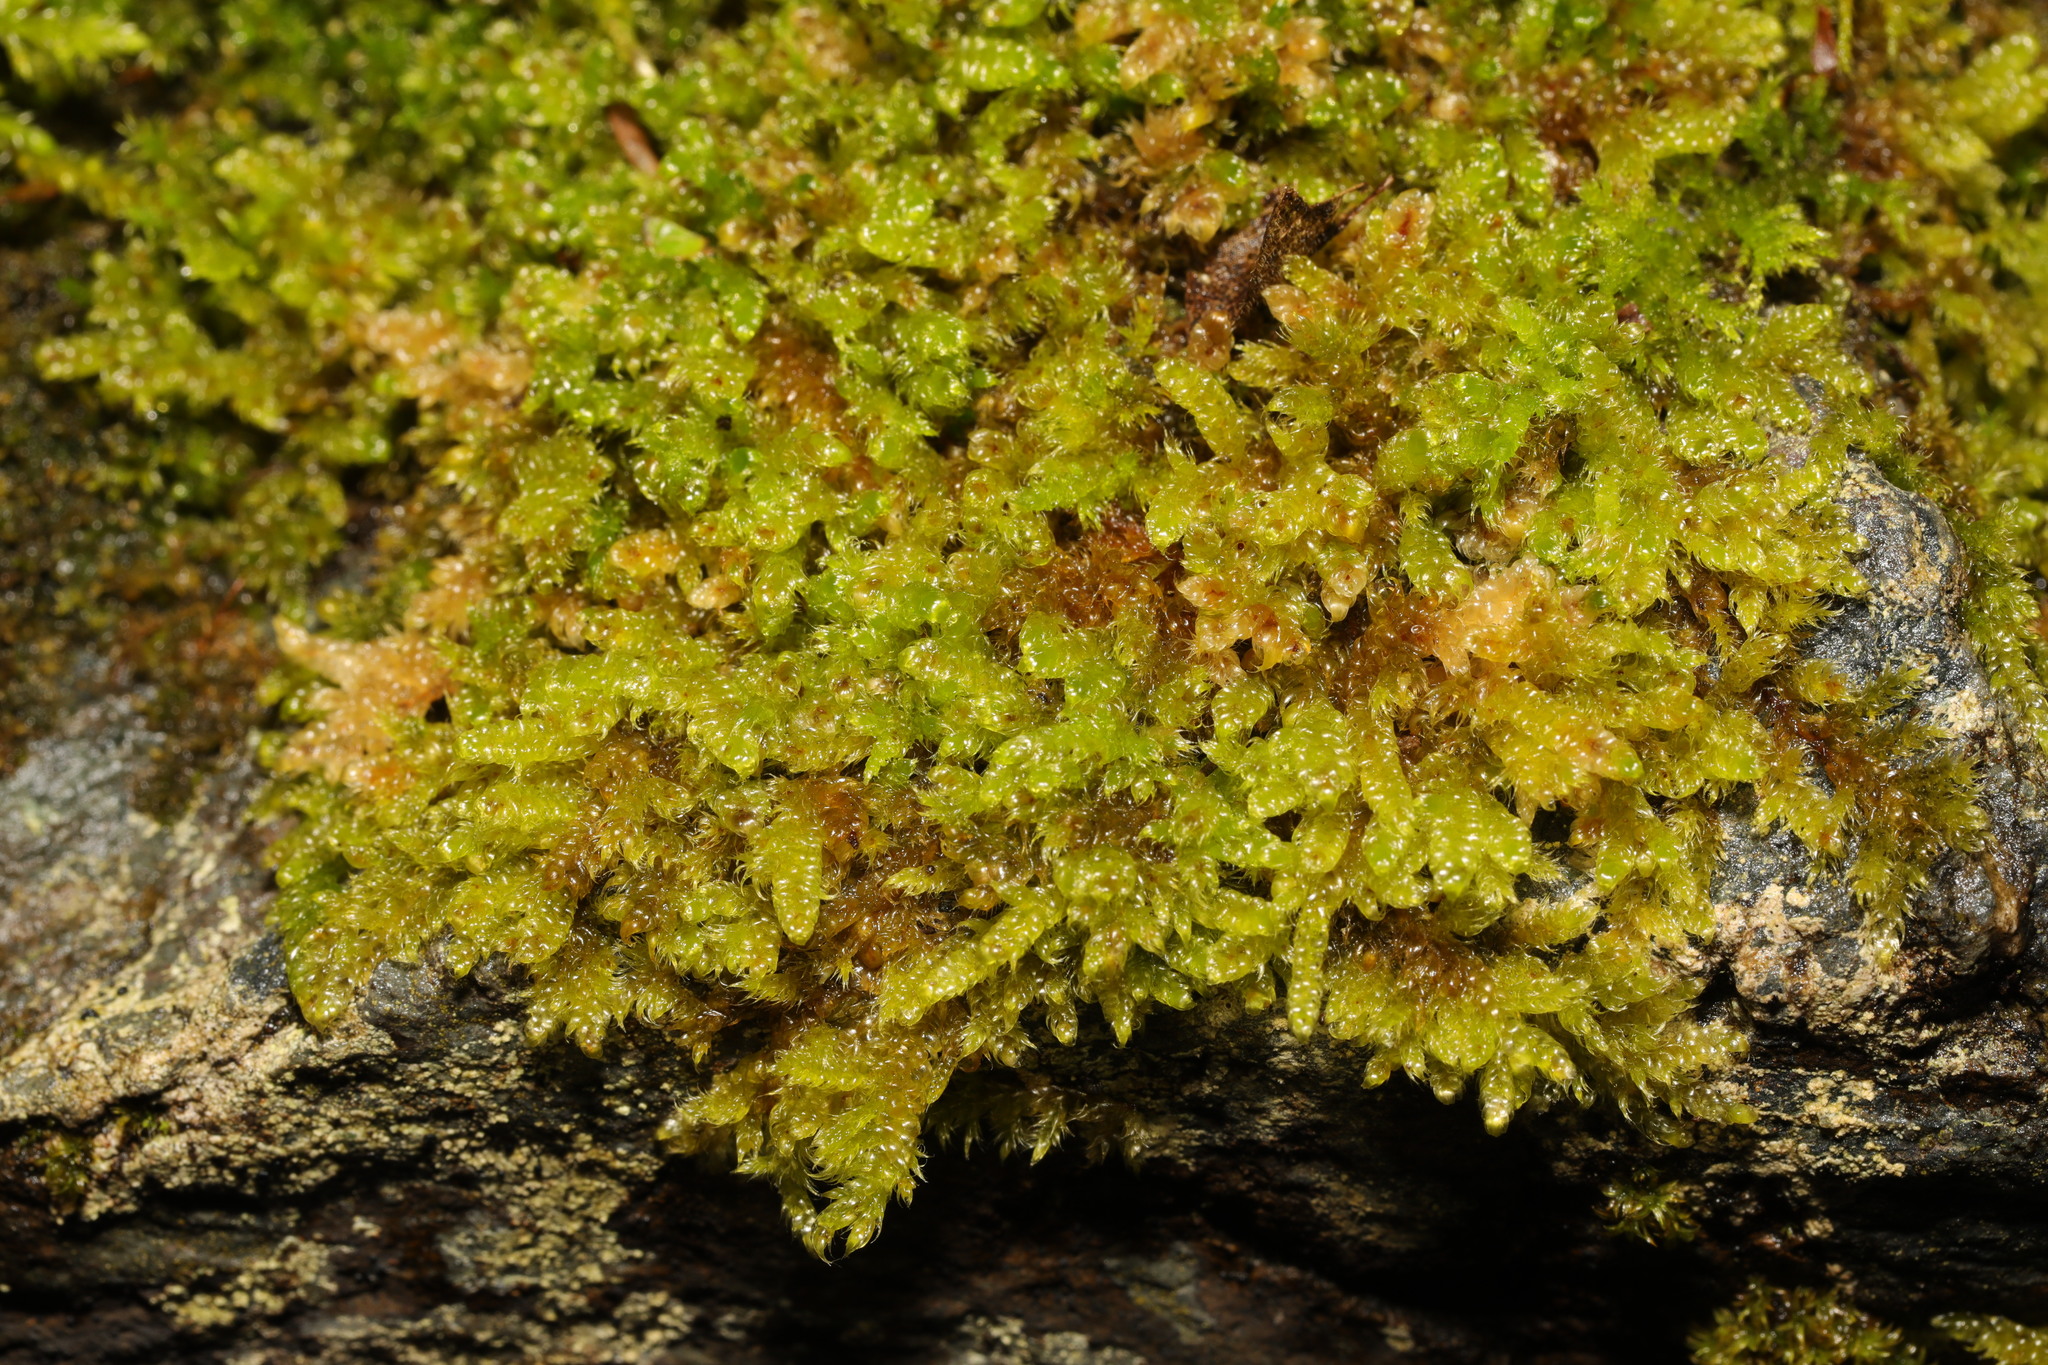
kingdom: Plantae
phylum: Bryophyta
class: Bryopsida
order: Hypnales
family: Hypnaceae
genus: Hypnum
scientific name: Hypnum cupressiforme
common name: Cypress-leaved plait-moss
